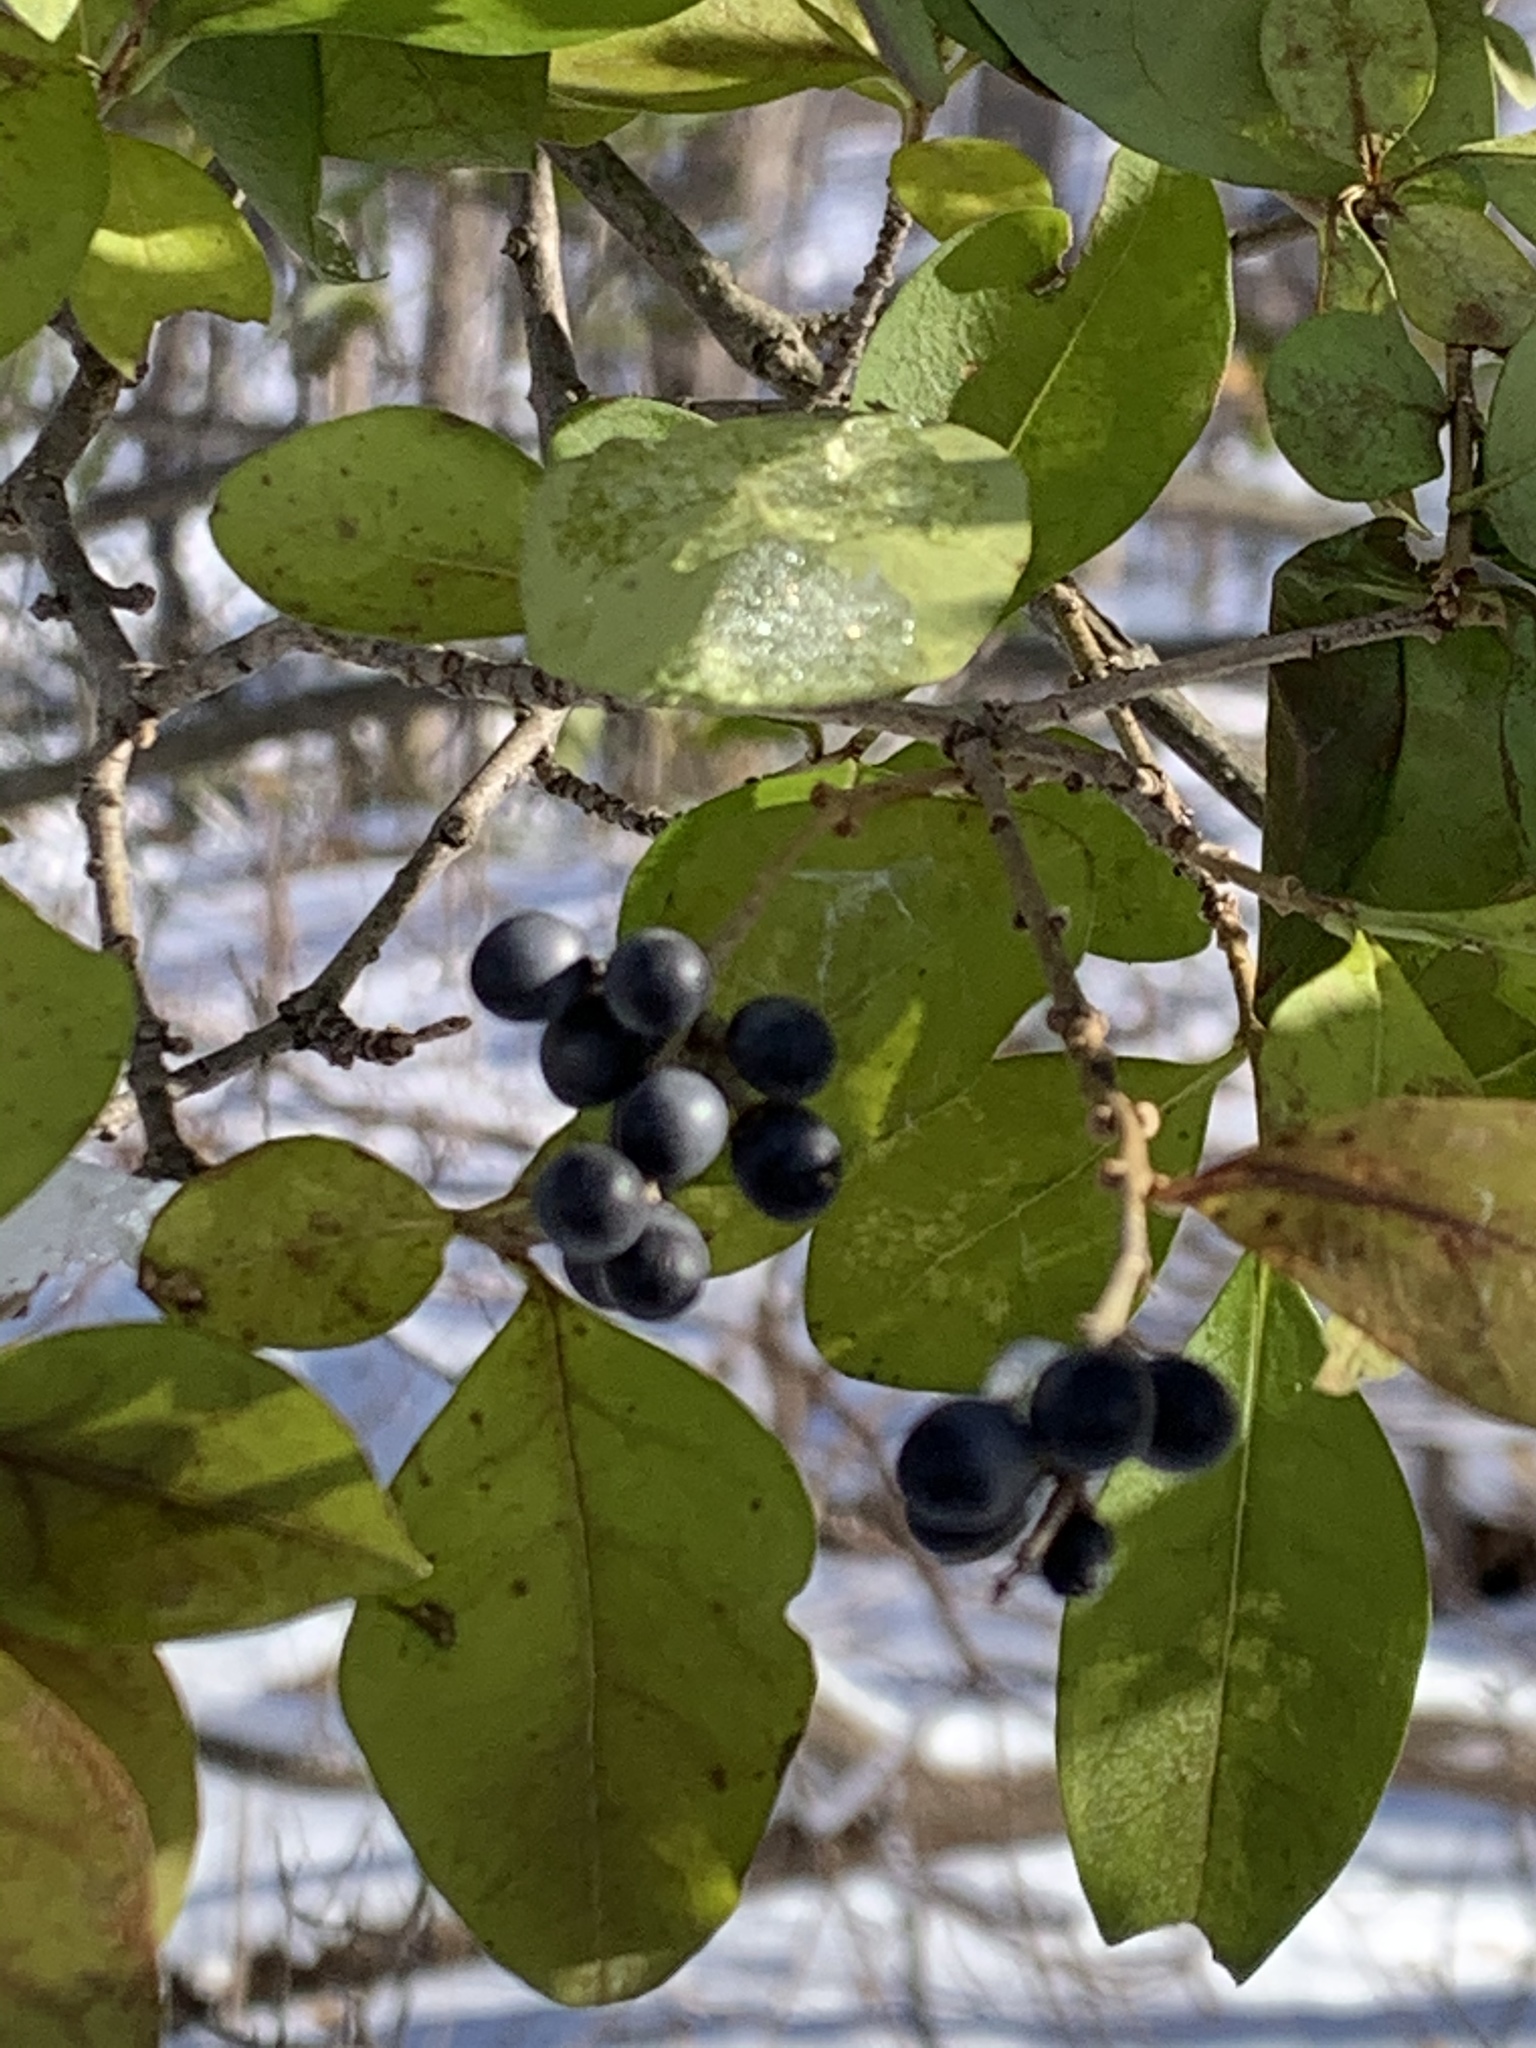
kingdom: Plantae
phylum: Tracheophyta
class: Magnoliopsida
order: Lamiales
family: Oleaceae
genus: Ligustrum
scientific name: Ligustrum ovalifolium
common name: California privet
